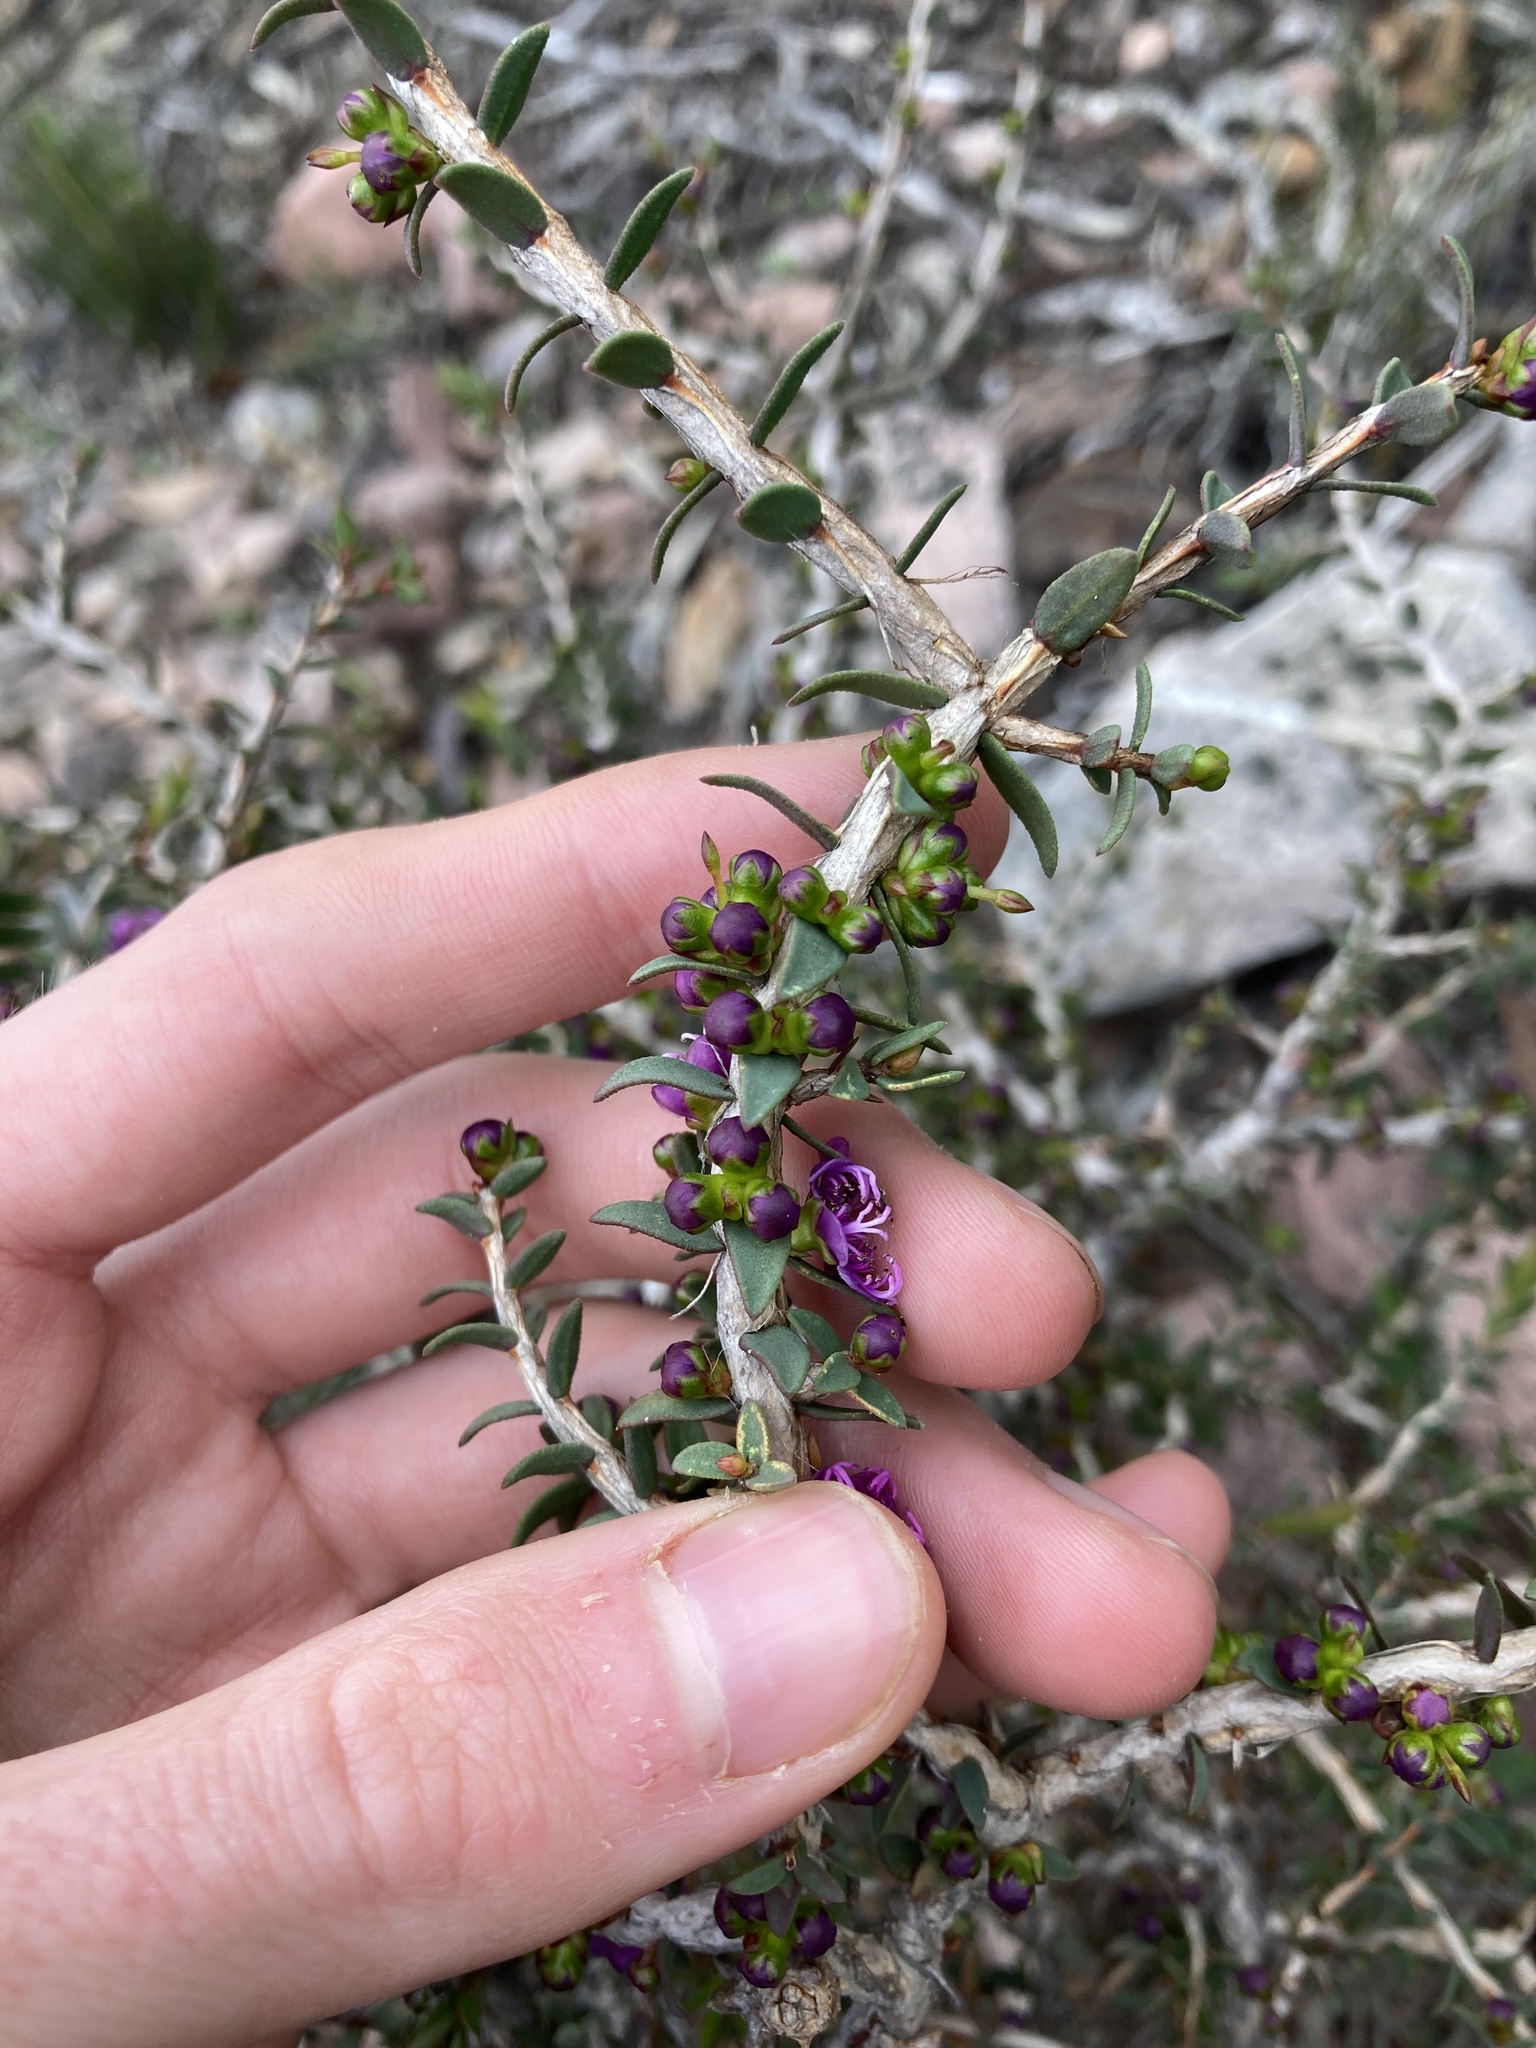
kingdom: Plantae
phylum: Tracheophyta
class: Magnoliopsida
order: Myrtales
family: Myrtaceae
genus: Melaleuca
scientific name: Melaleuca violacea
